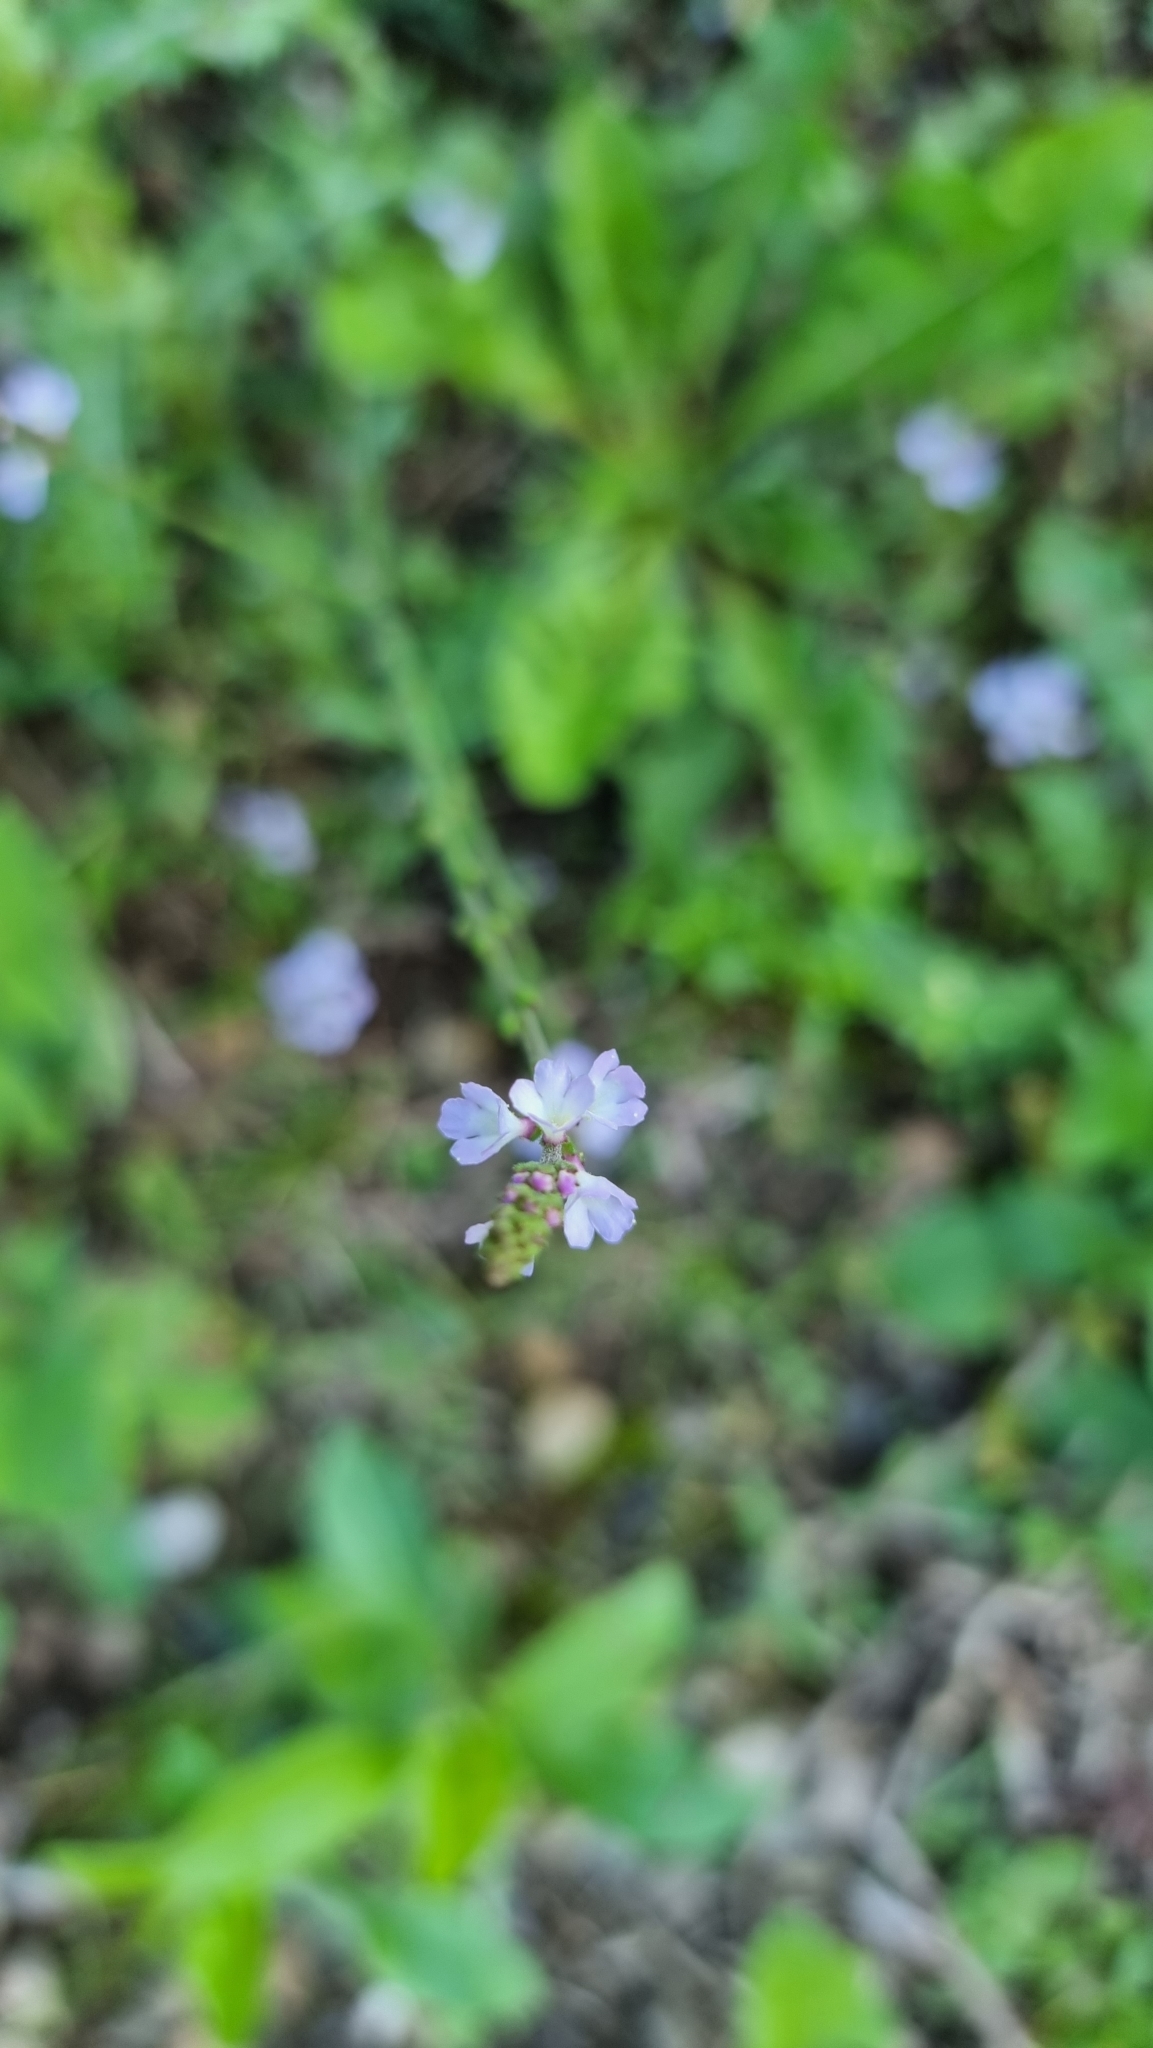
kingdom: Plantae
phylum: Tracheophyta
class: Magnoliopsida
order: Lamiales
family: Verbenaceae
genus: Verbena
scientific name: Verbena officinalis
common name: Vervain
